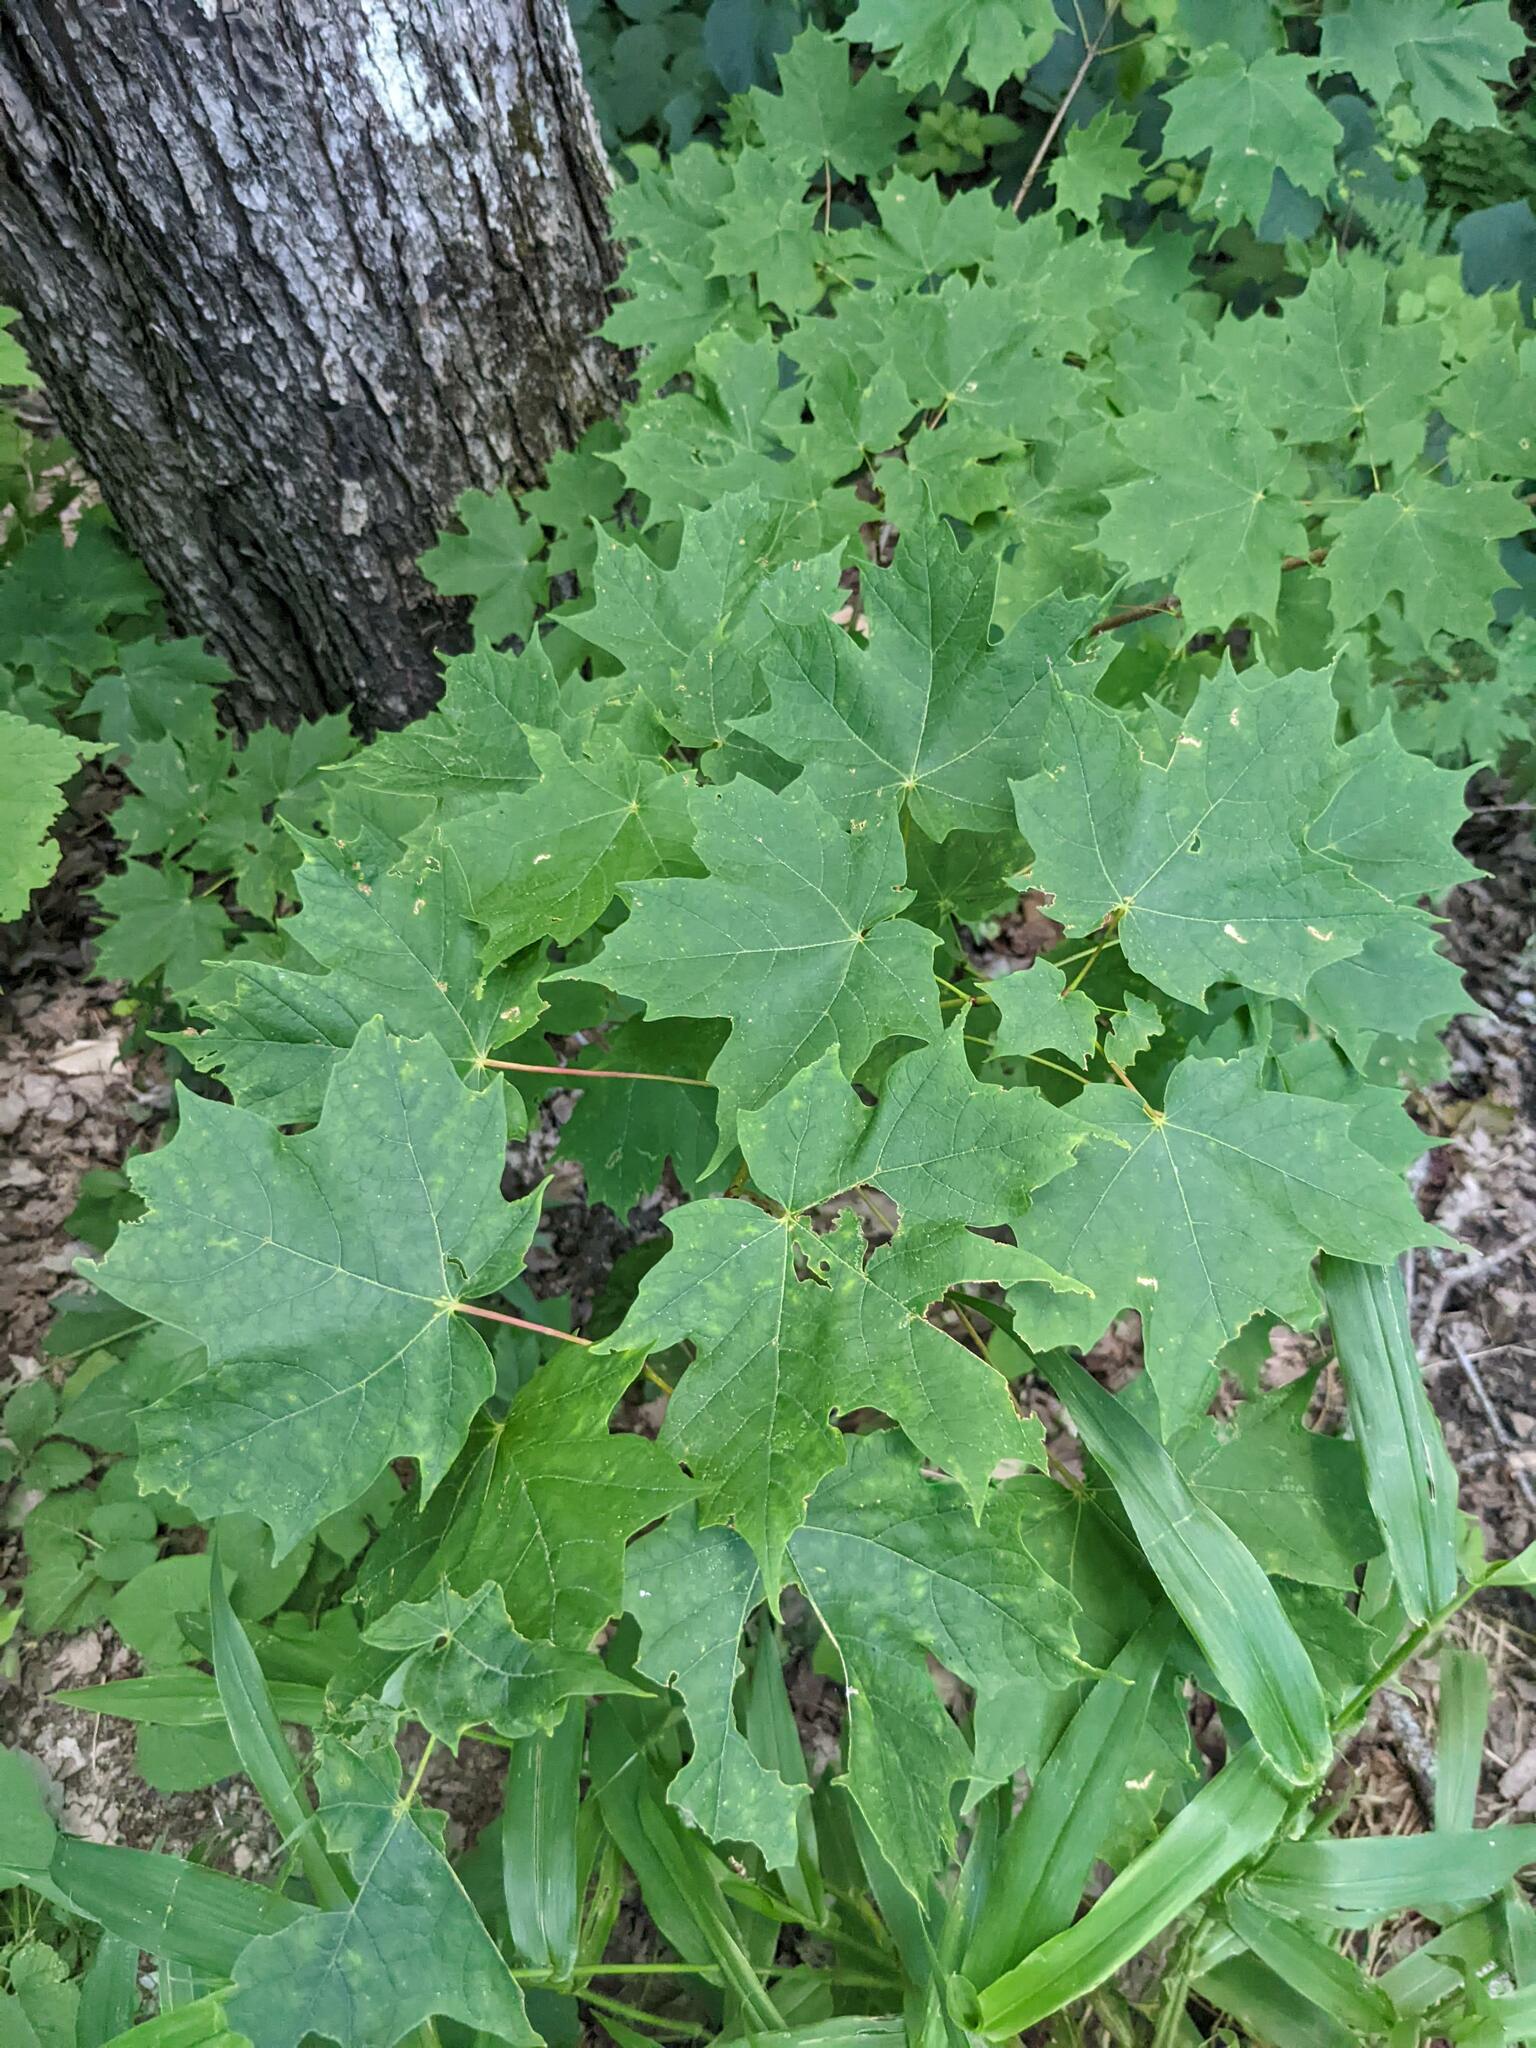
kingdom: Plantae
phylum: Tracheophyta
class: Magnoliopsida
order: Sapindales
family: Sapindaceae
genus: Acer
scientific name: Acer saccharum
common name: Sugar maple
